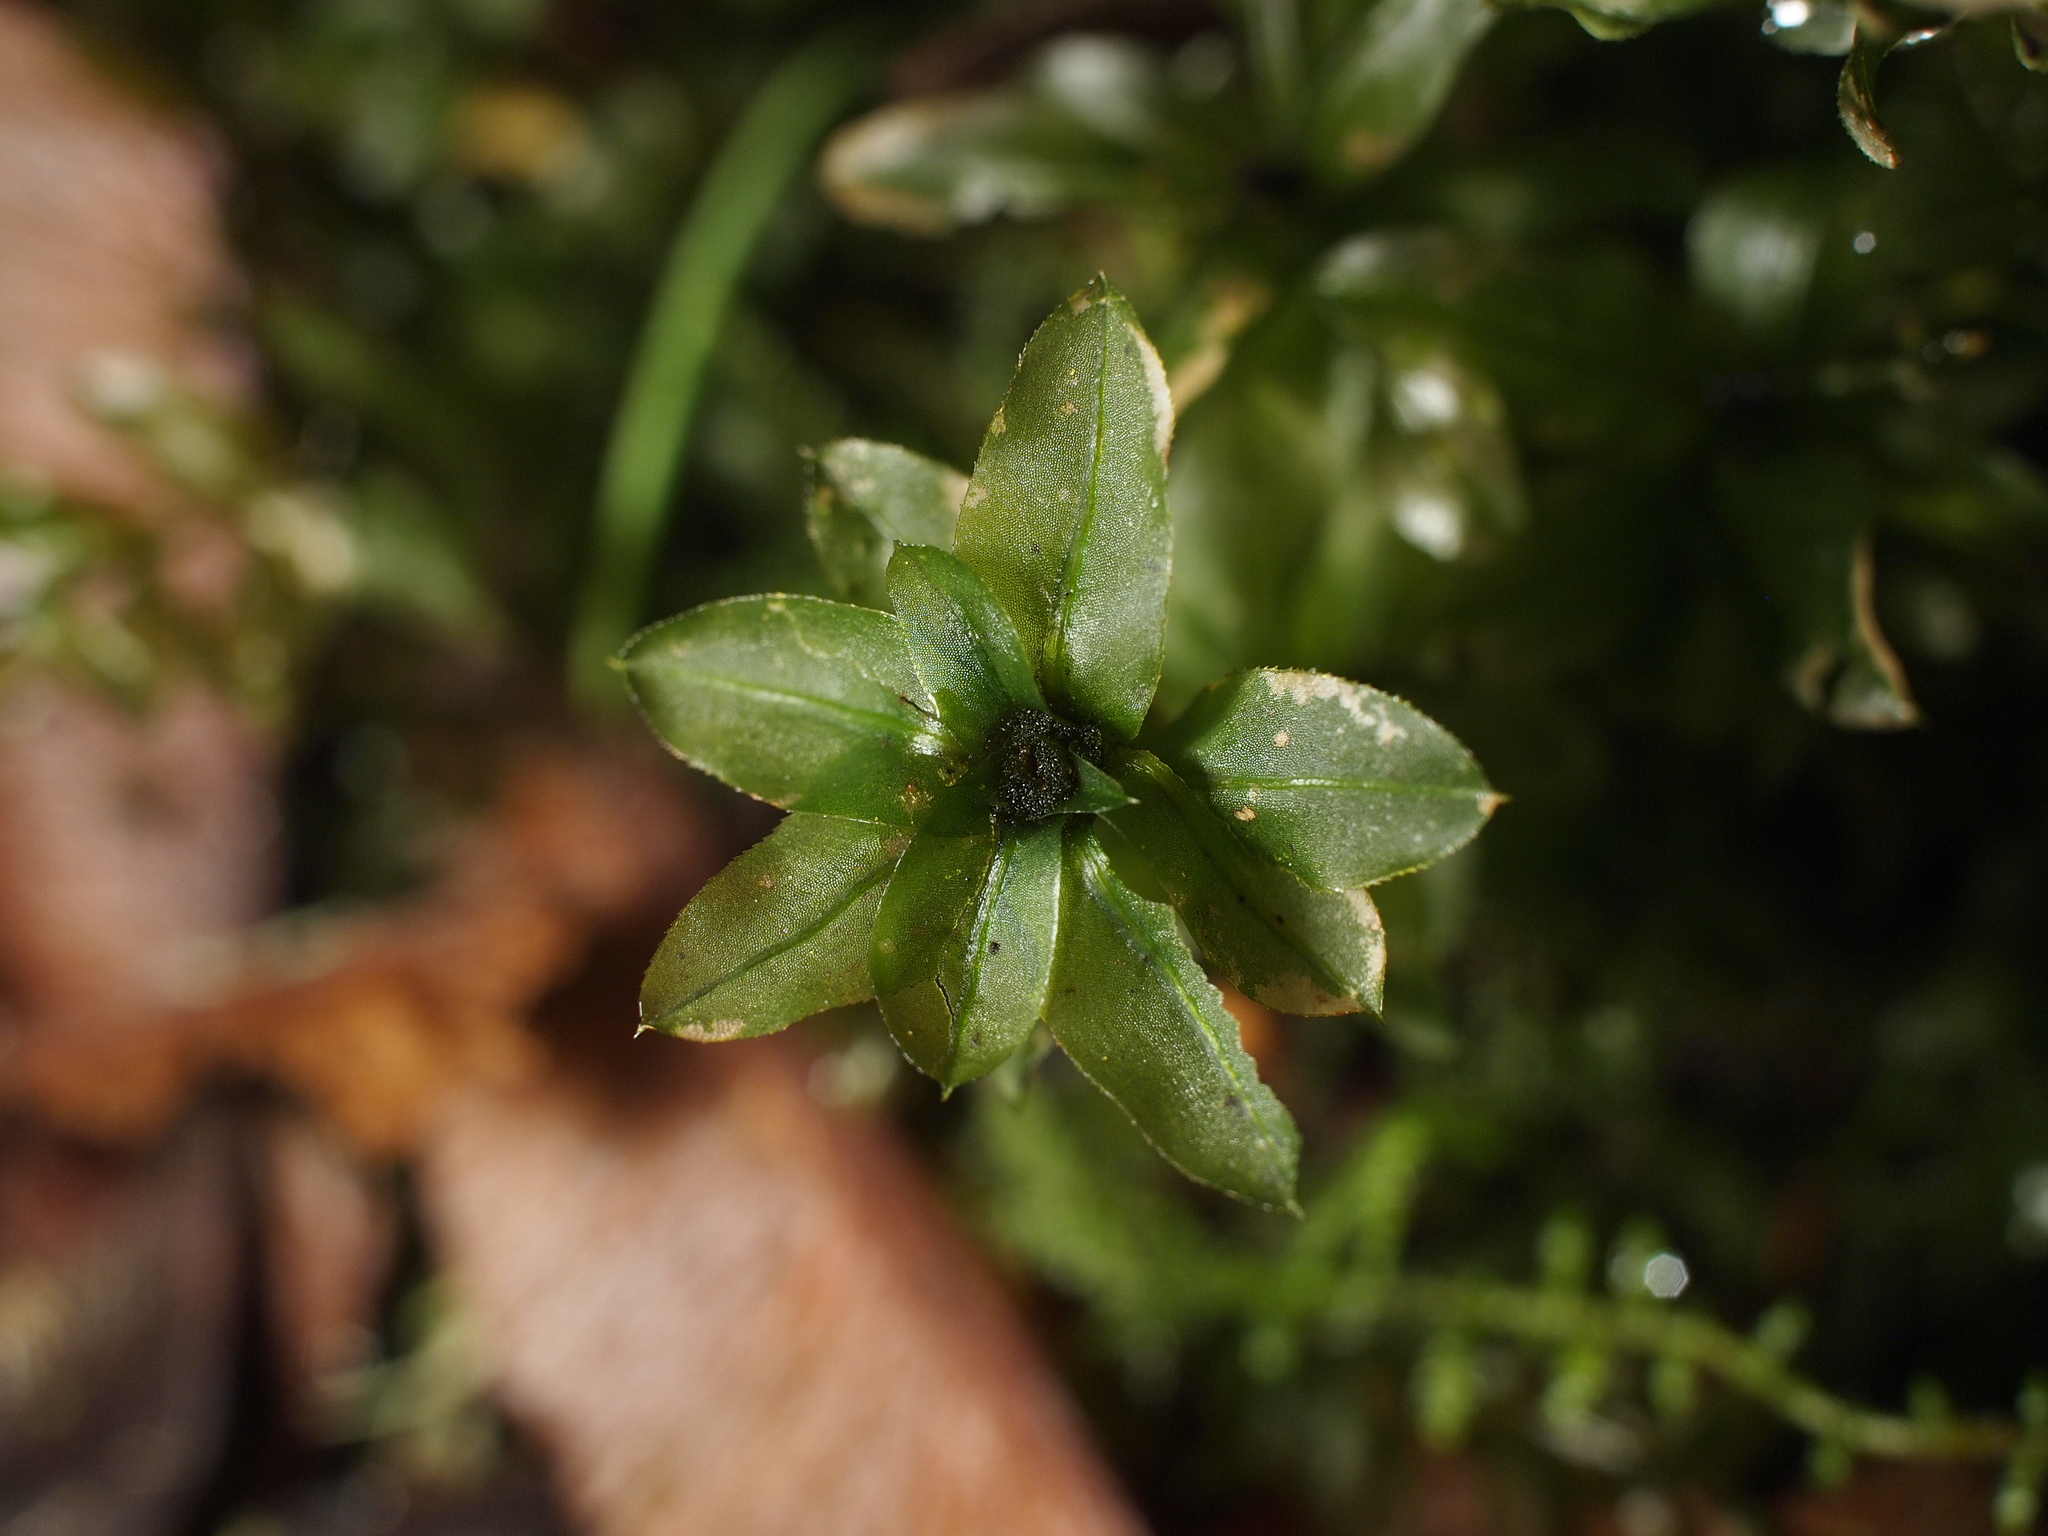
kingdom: Plantae
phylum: Bryophyta
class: Bryopsida
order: Bryales
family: Mniaceae
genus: Plagiomnium
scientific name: Plagiomnium insigne
